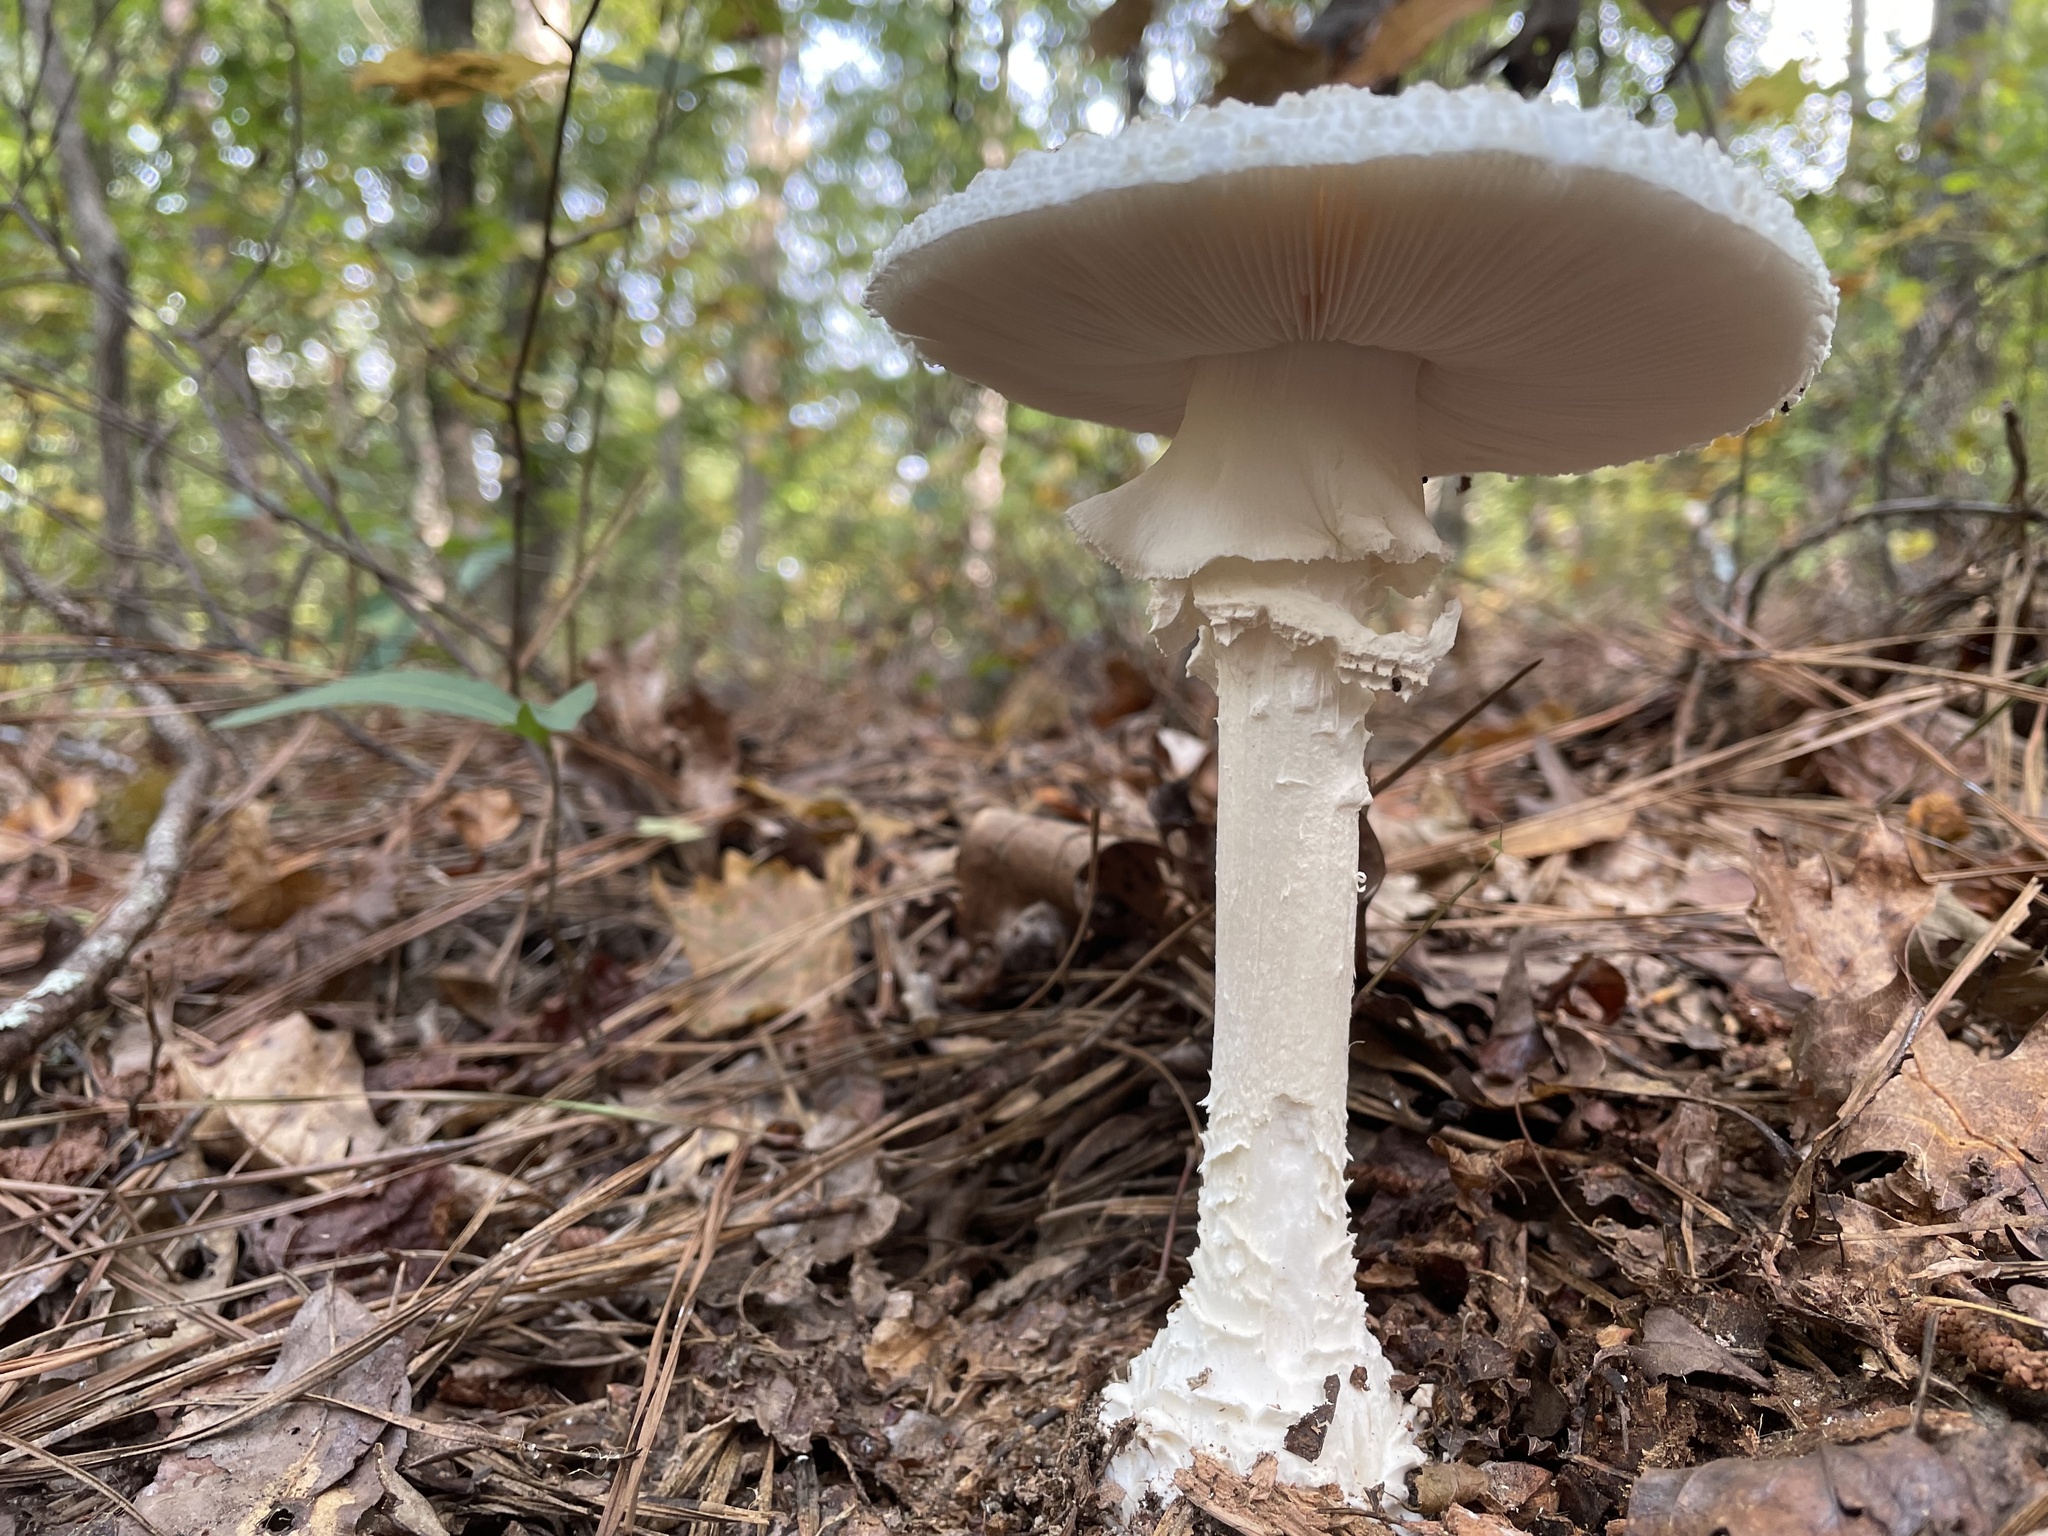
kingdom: Fungi
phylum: Basidiomycota
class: Agaricomycetes
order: Agaricales
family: Amanitaceae
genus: Amanita
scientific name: Amanita cokeri
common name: Coker's amanita
